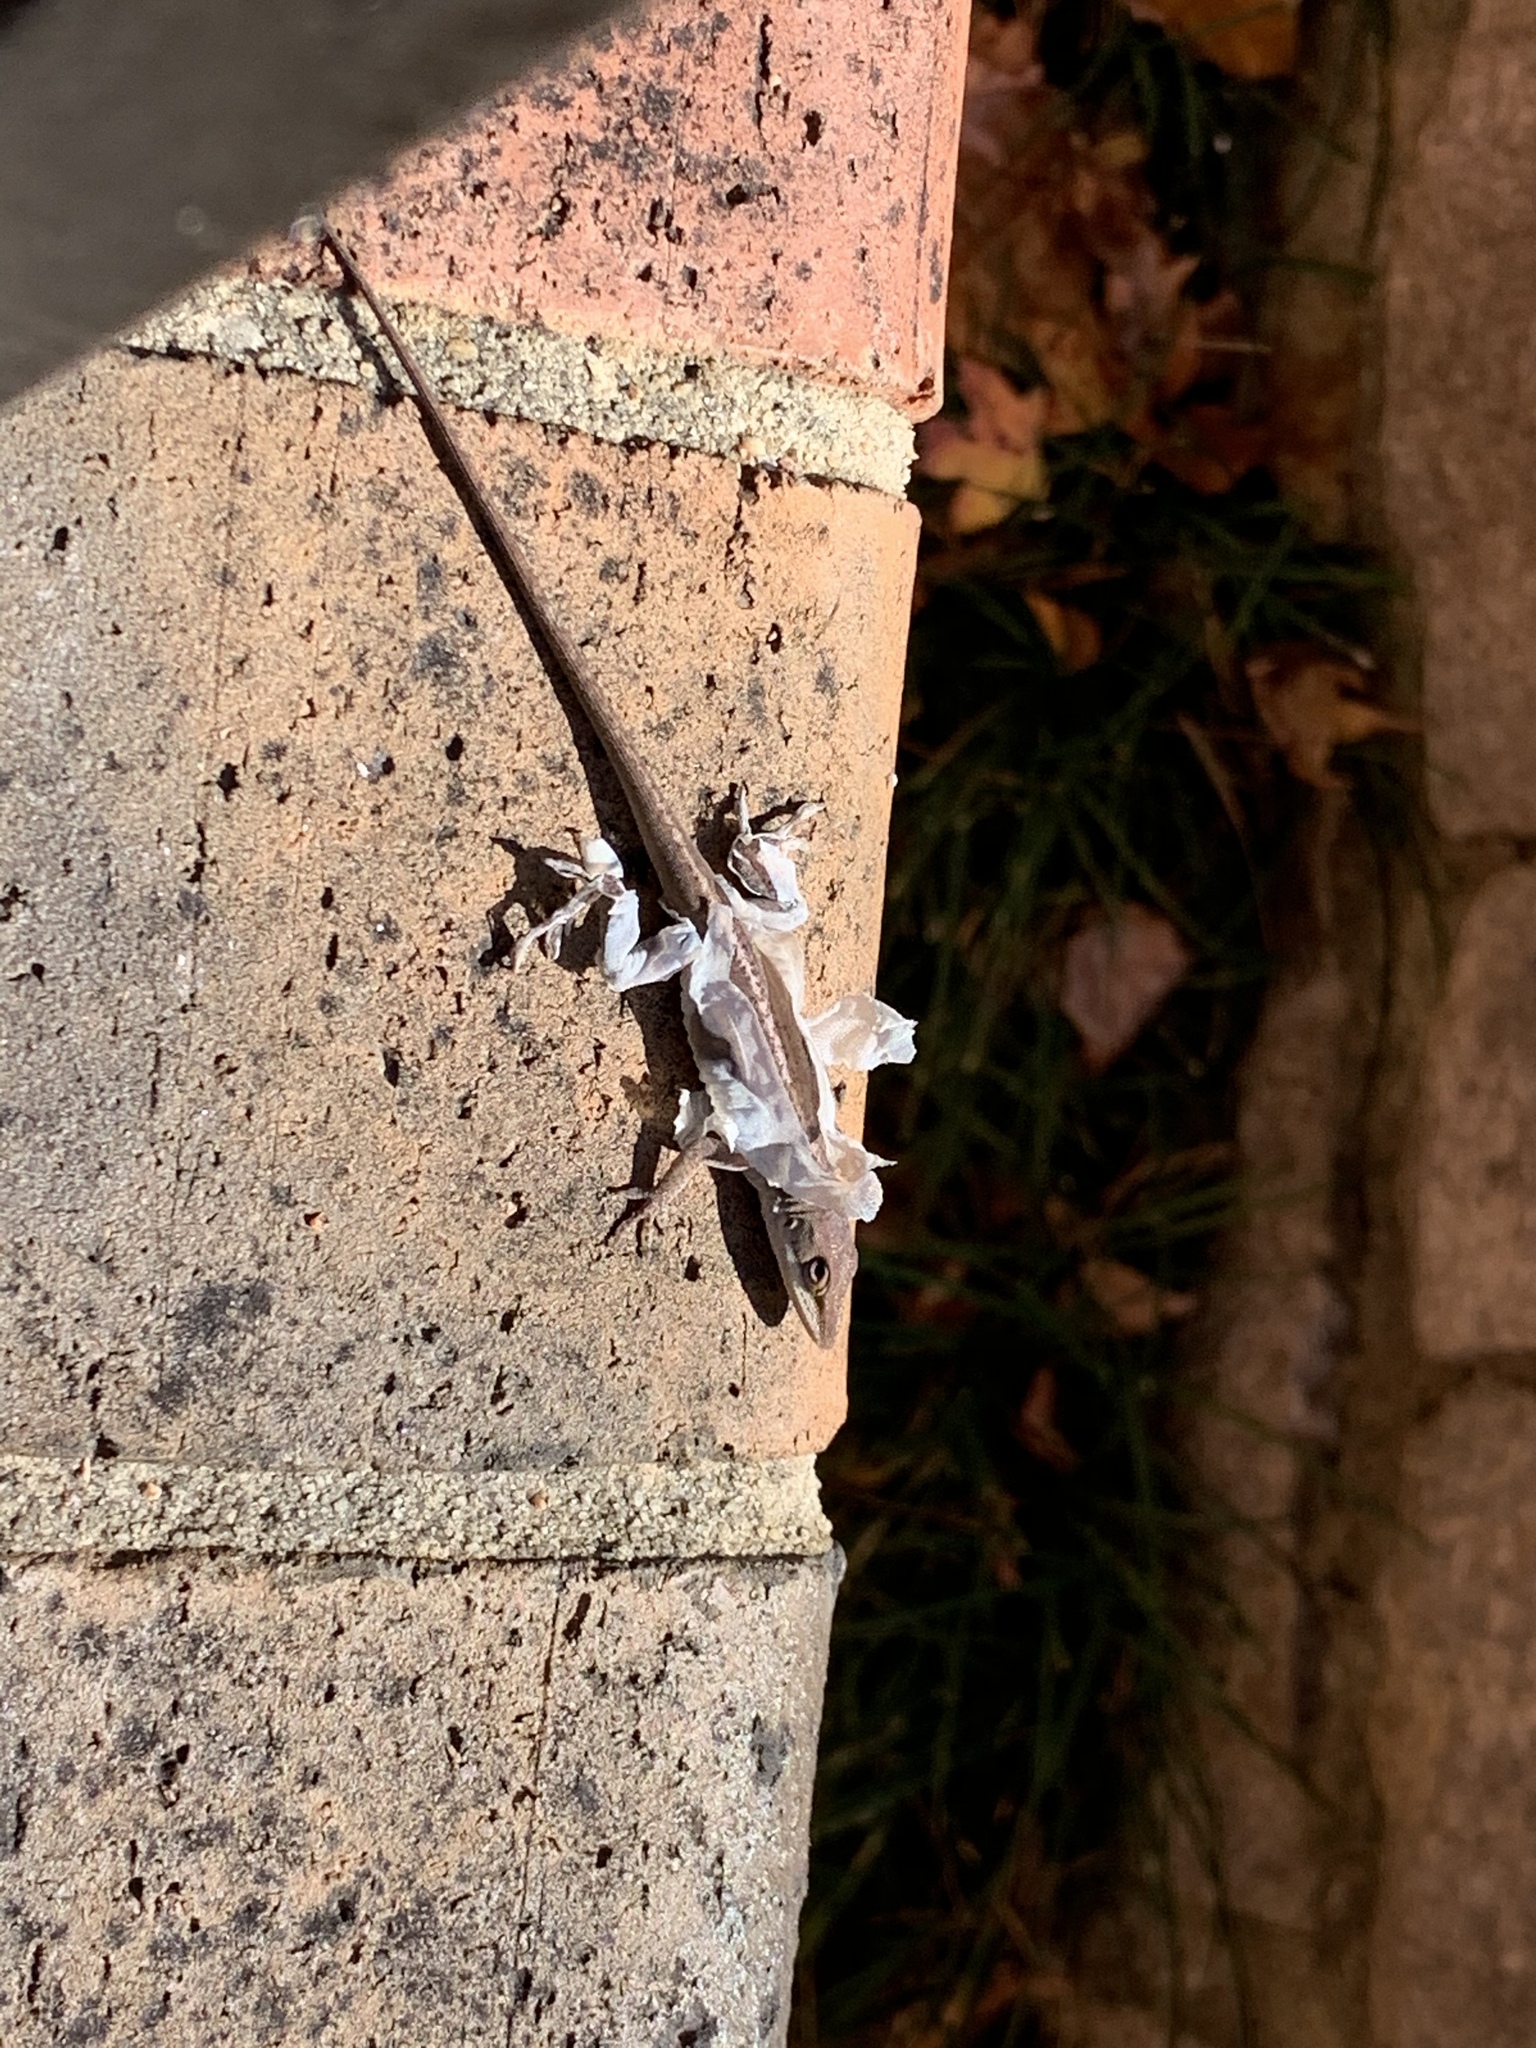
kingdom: Animalia
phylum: Chordata
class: Squamata
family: Dactyloidae
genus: Anolis
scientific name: Anolis carolinensis
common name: Green anole
